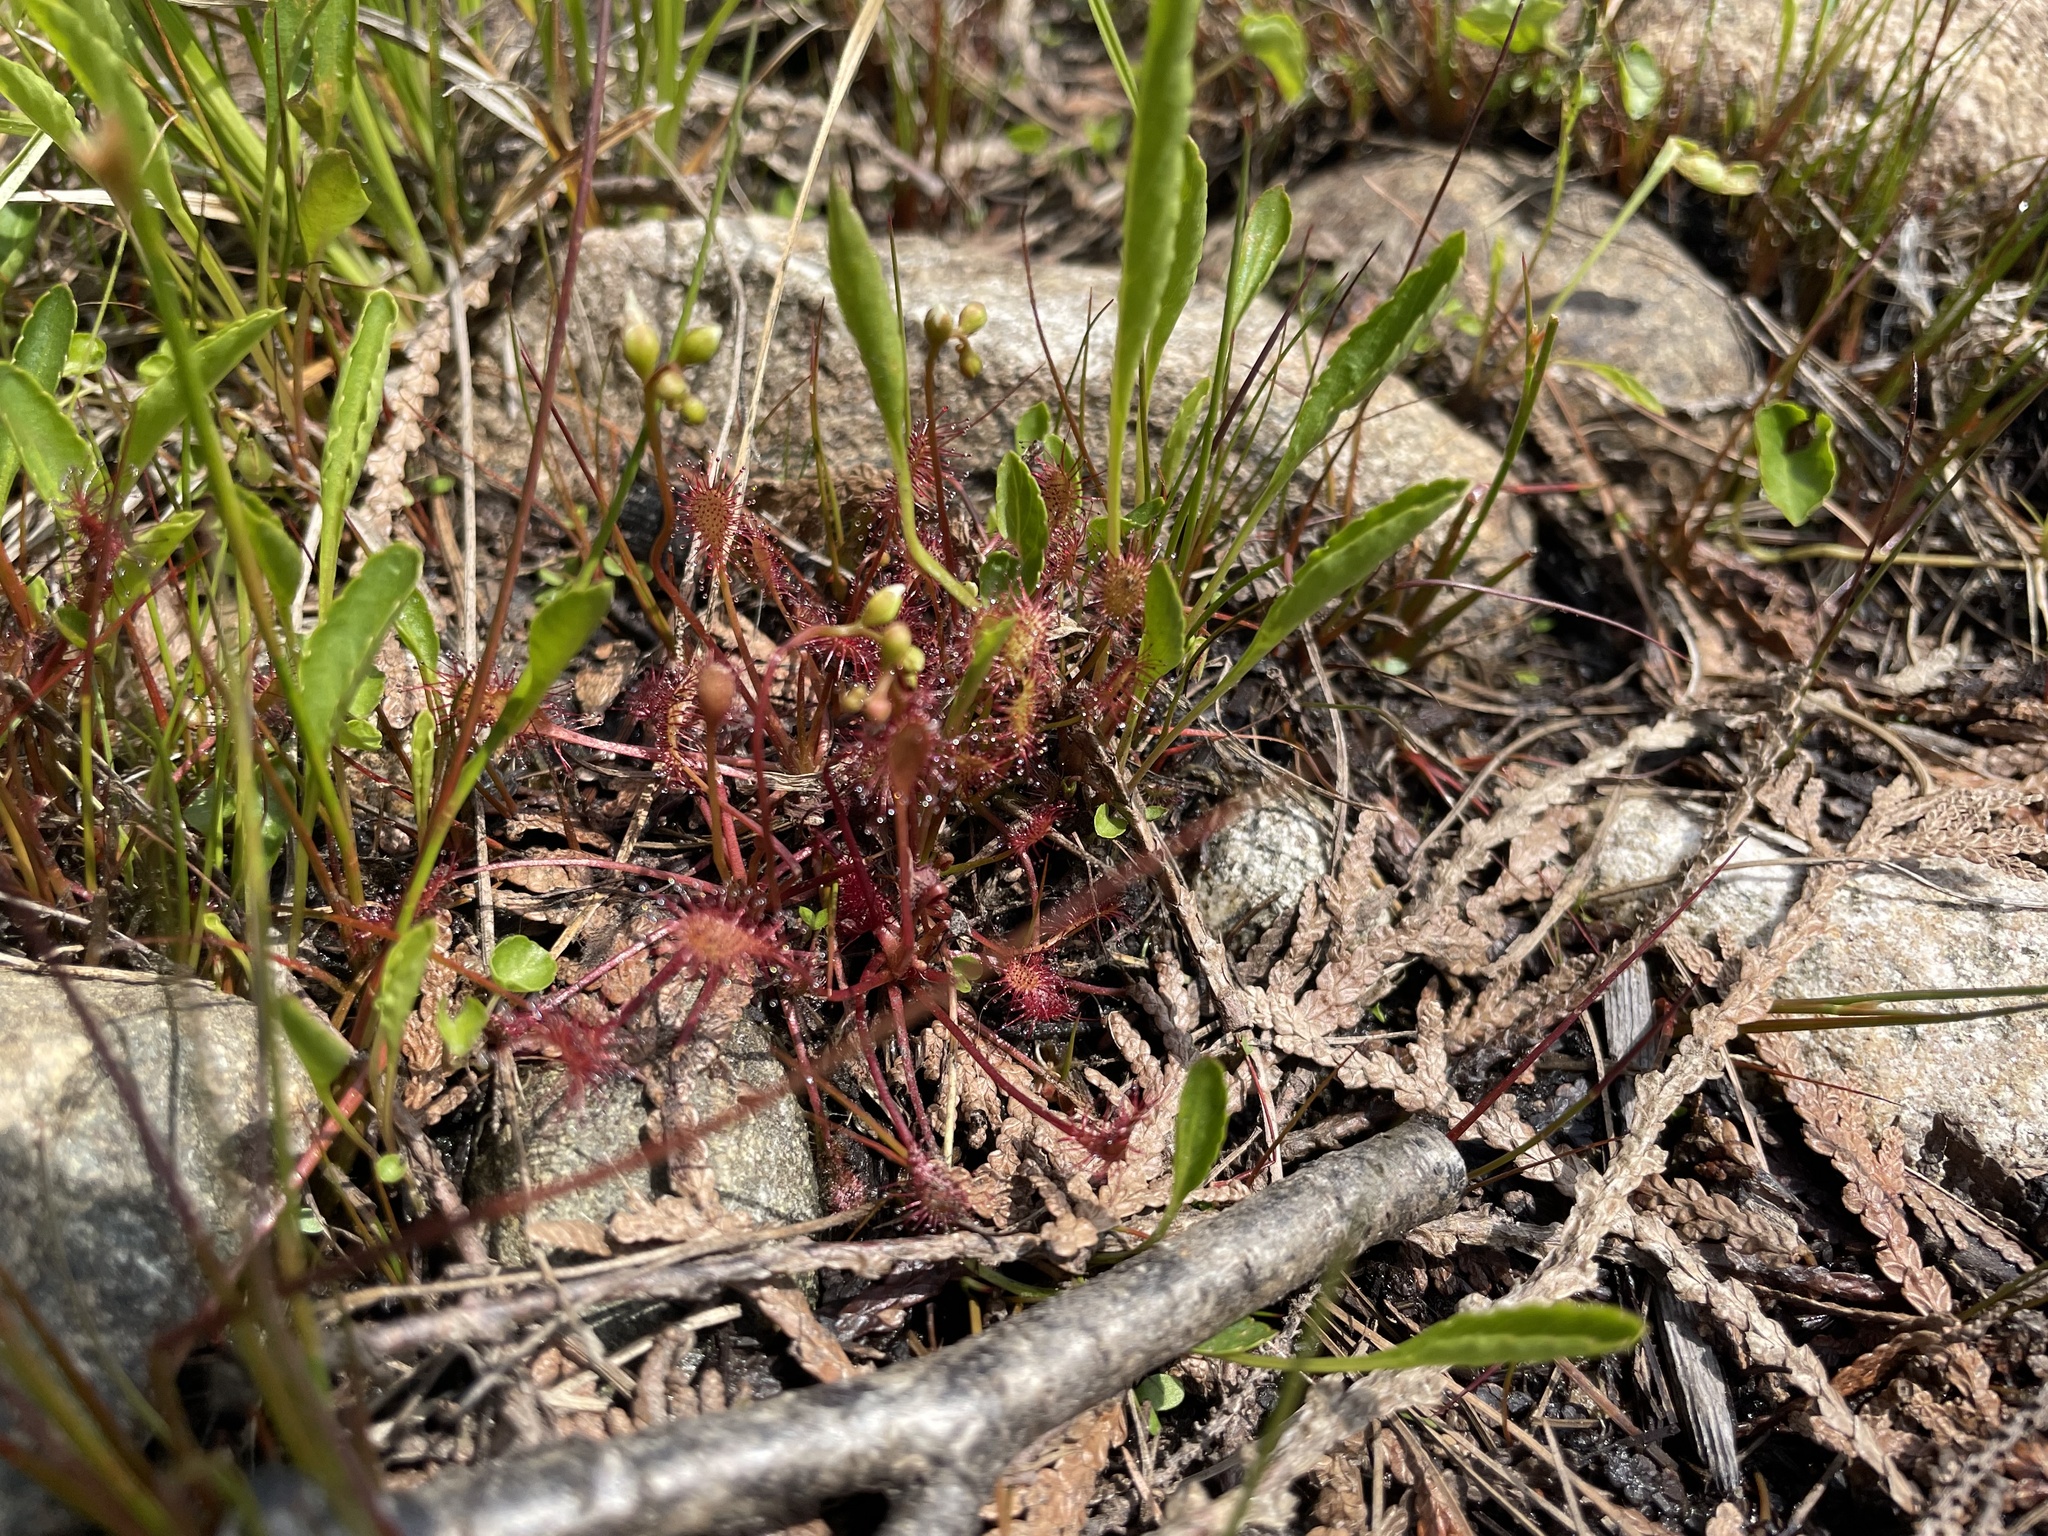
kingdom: Plantae
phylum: Tracheophyta
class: Magnoliopsida
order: Caryophyllales
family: Droseraceae
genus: Drosera
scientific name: Drosera intermedia
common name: Oblong-leaved sundew
